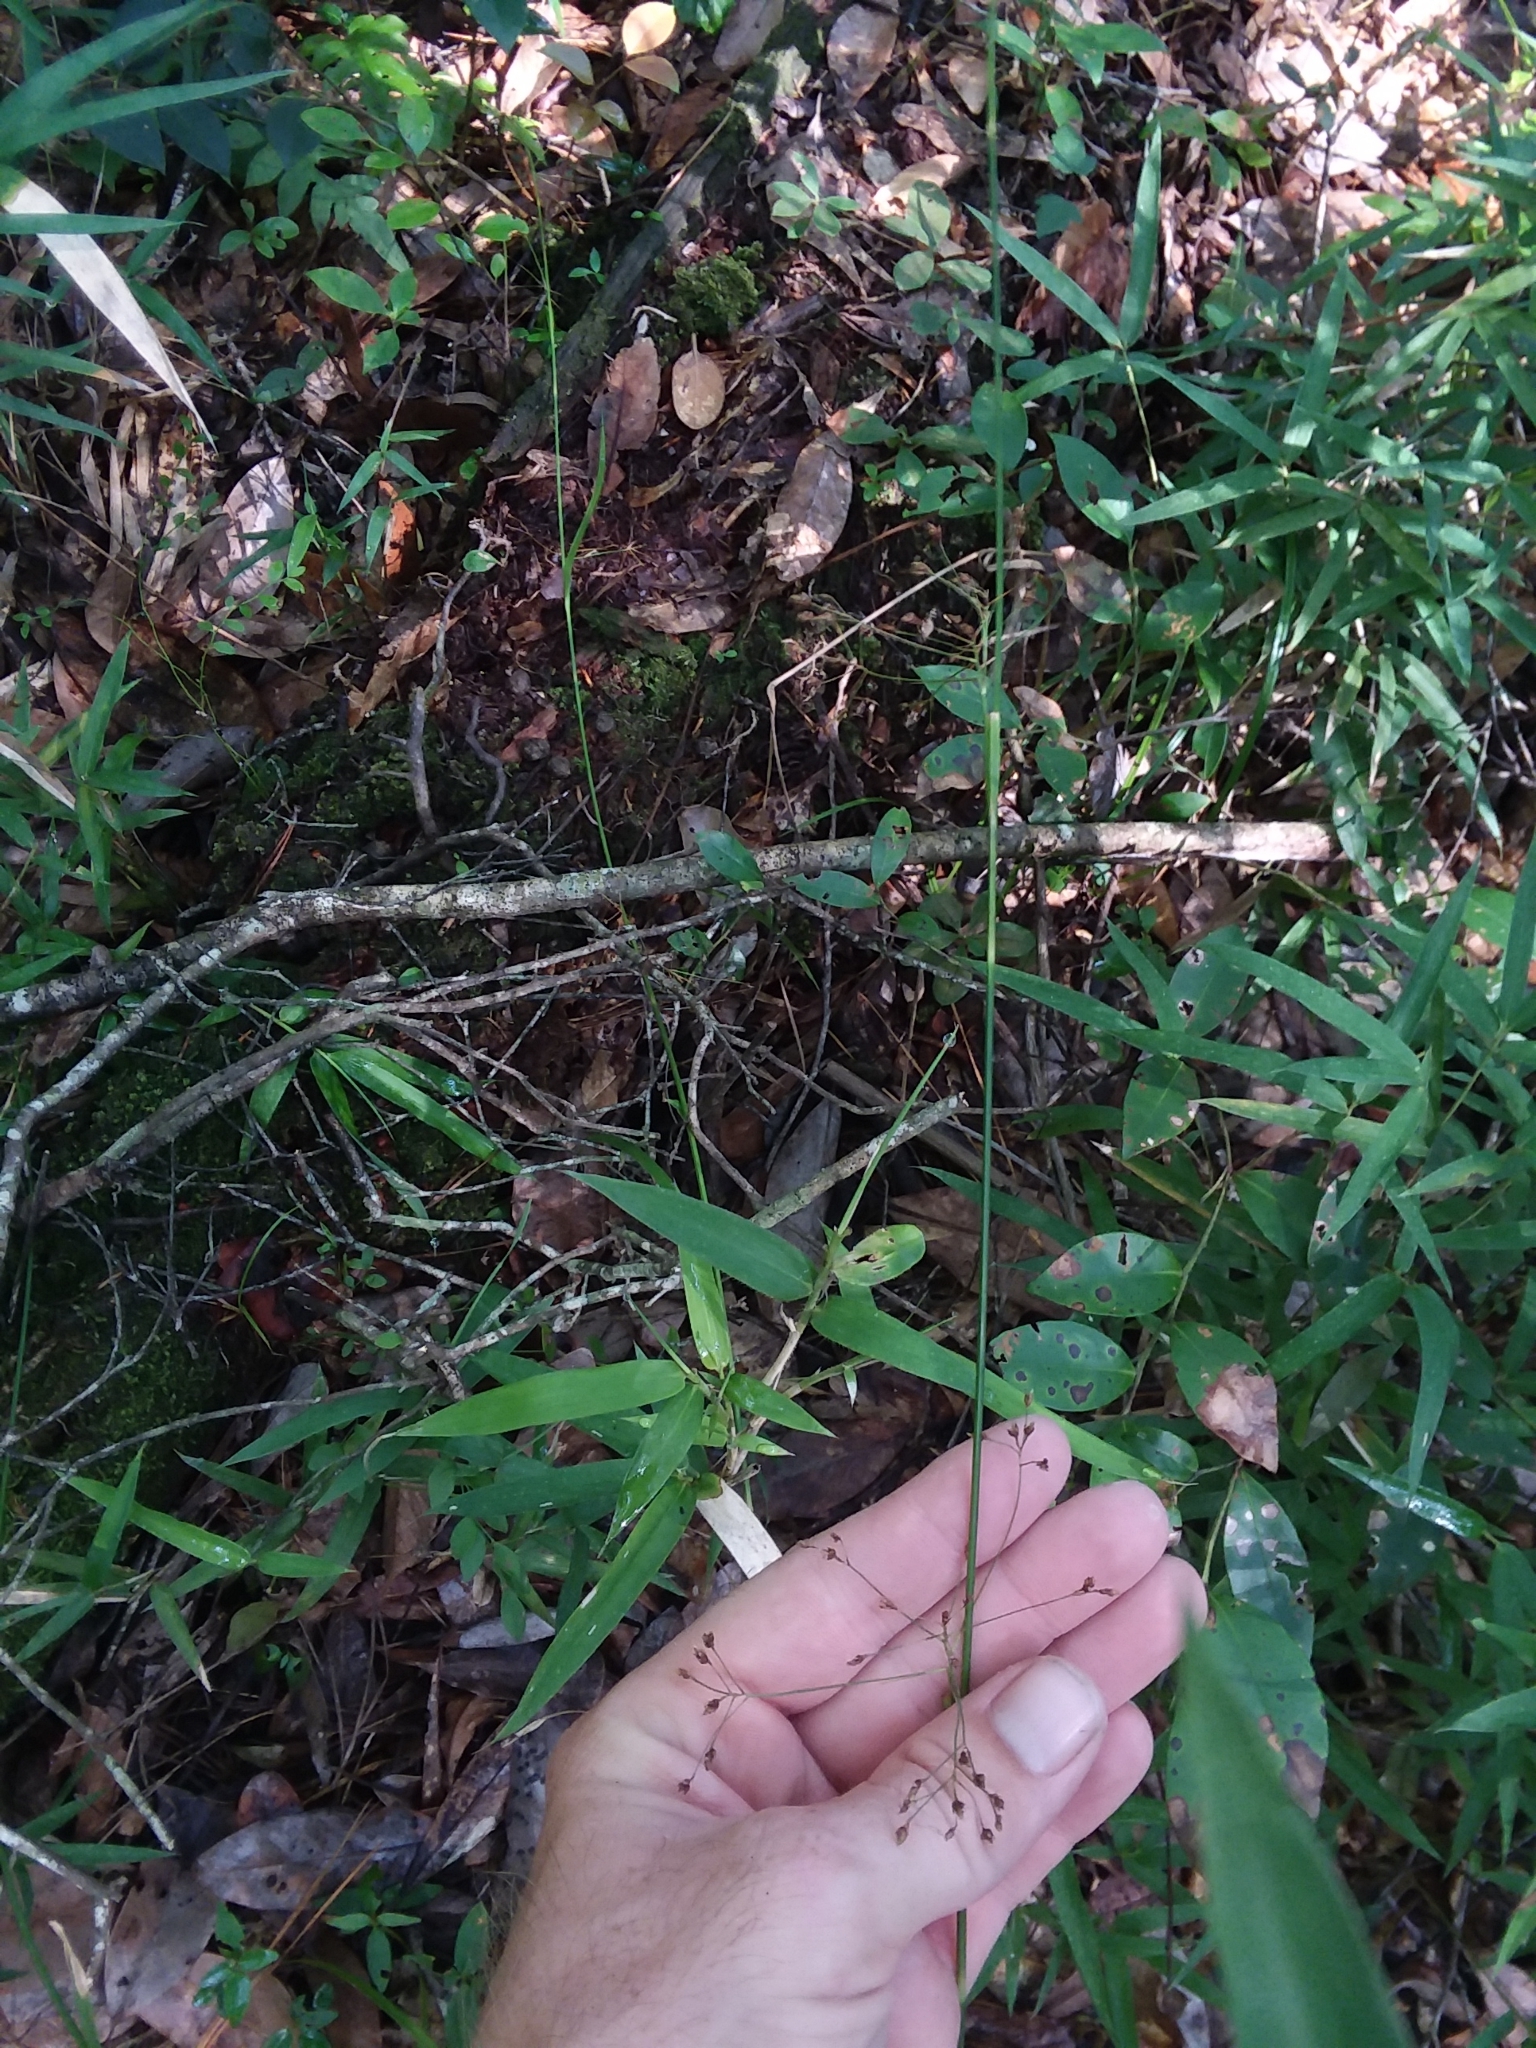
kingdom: Plantae
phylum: Tracheophyta
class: Liliopsida
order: Poales
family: Cyperaceae
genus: Rhynchospora
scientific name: Rhynchospora mixta
